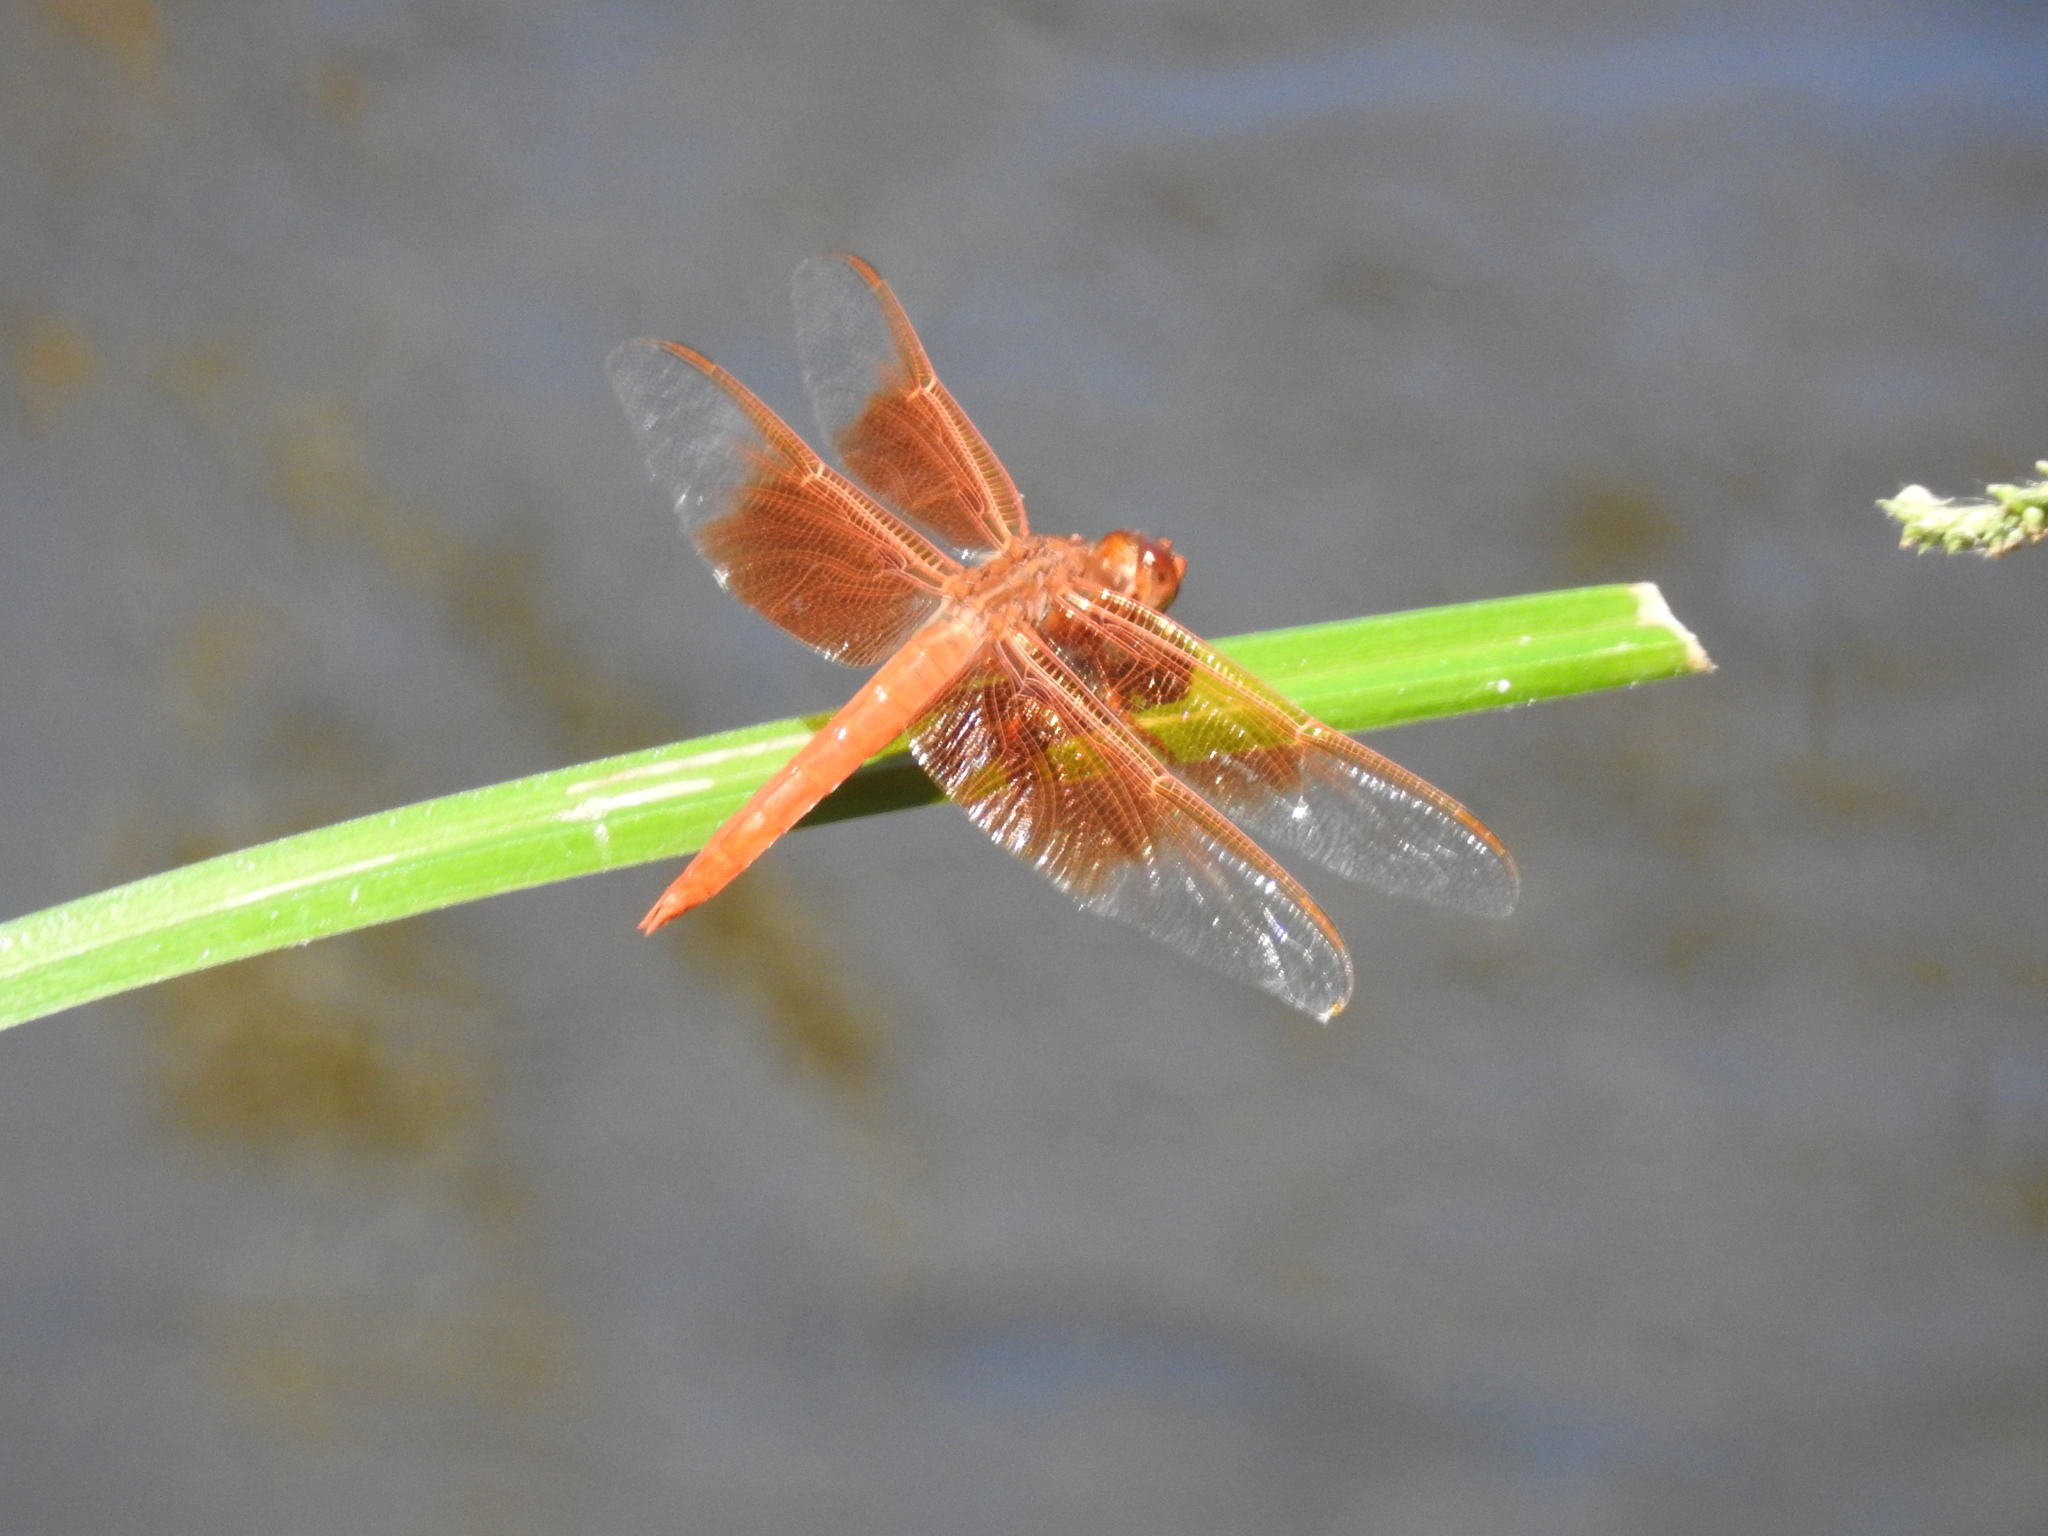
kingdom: Animalia
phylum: Arthropoda
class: Insecta
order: Odonata
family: Libellulidae
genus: Libellula
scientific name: Libellula saturata
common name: Flame skimmer
